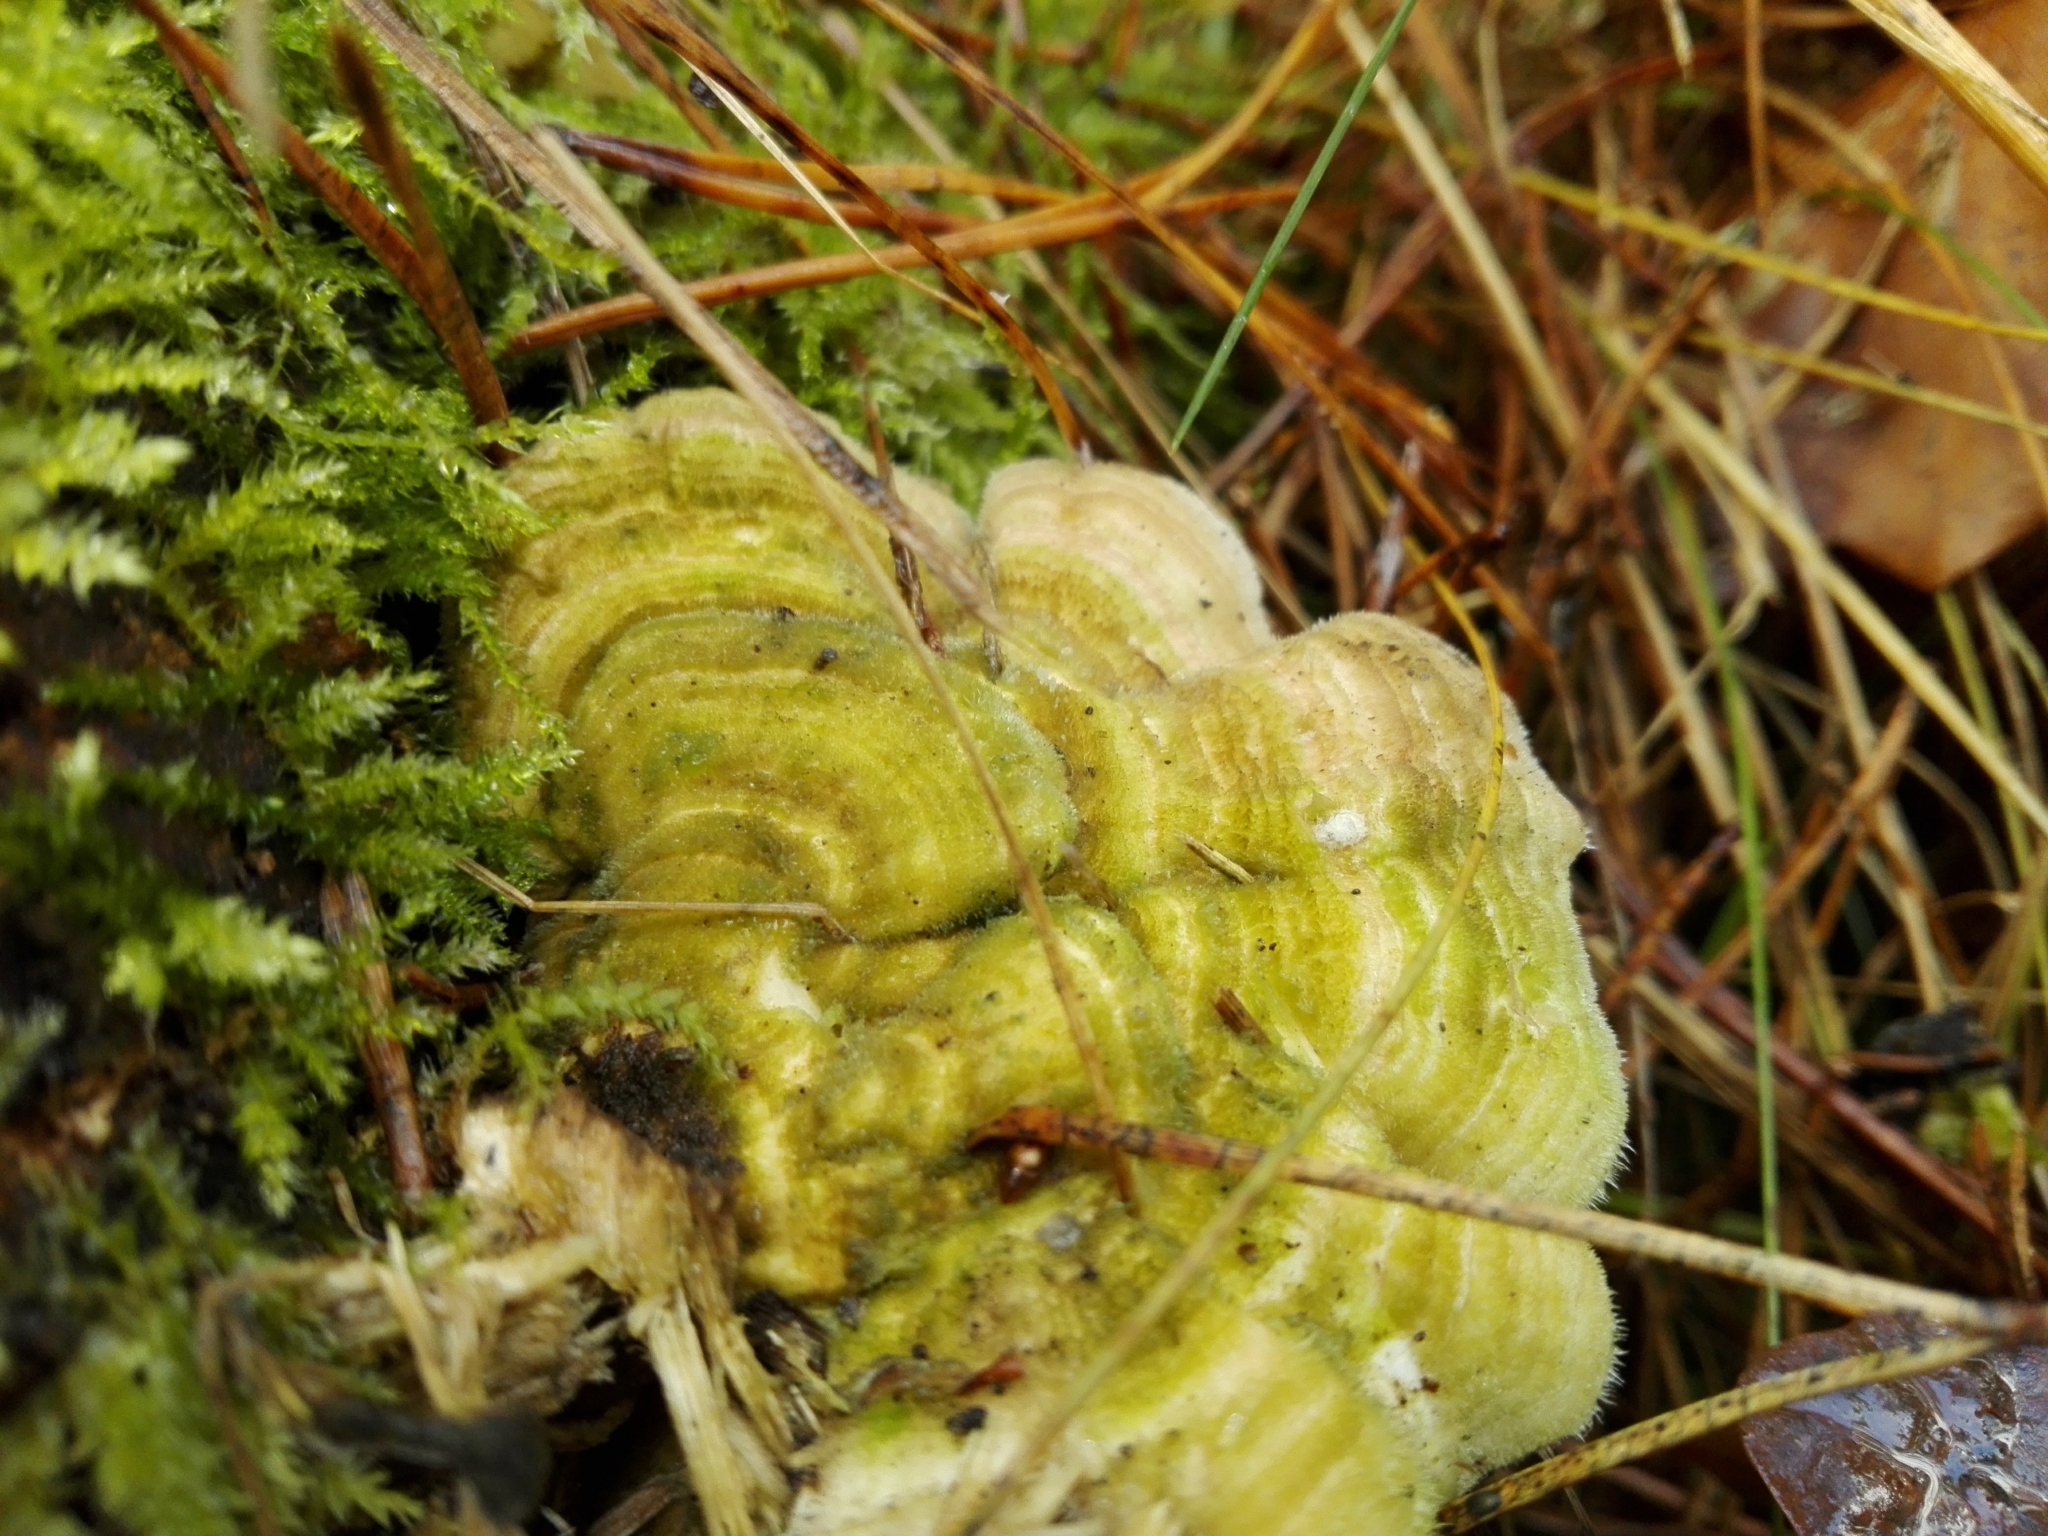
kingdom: Fungi
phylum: Basidiomycota
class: Agaricomycetes
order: Polyporales
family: Polyporaceae
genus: Trametes
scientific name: Trametes hirsuta
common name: Hairy bracket
